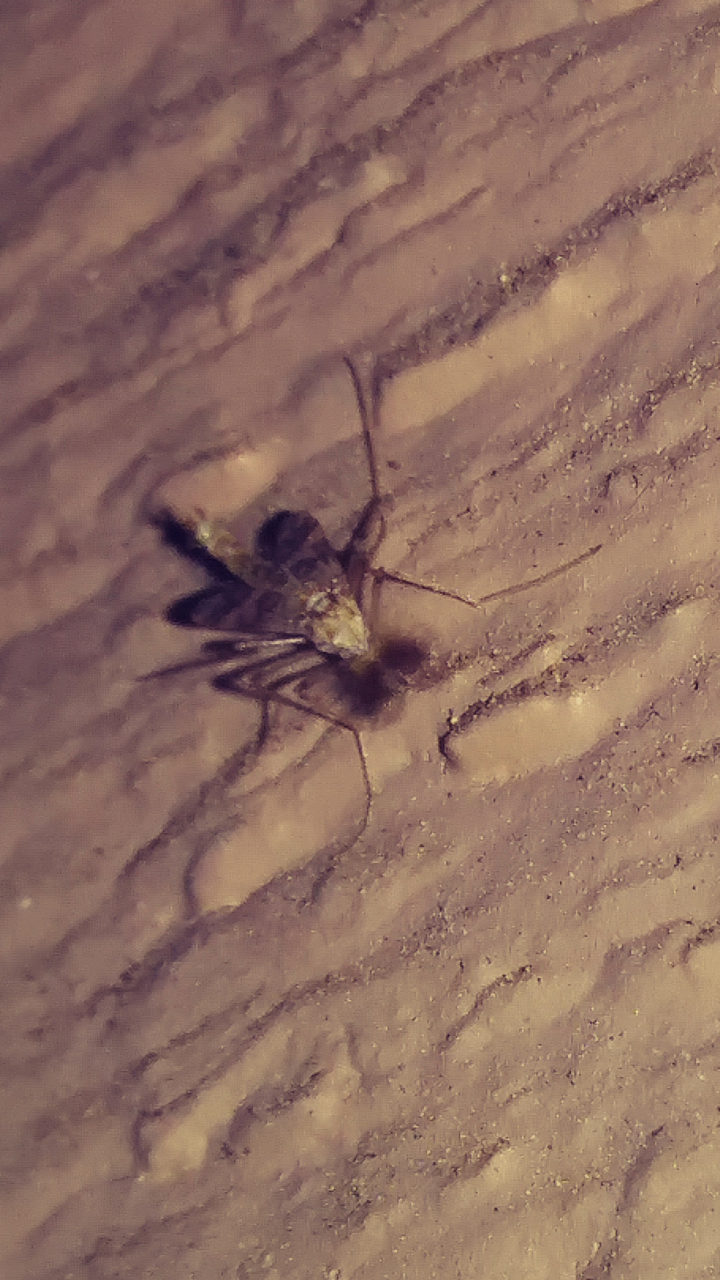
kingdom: Animalia
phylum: Arthropoda
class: Insecta
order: Coleoptera
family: Chrysomelidae
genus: Acalymma
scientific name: Acalymma vittatum
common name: Striped cucumber beetle
